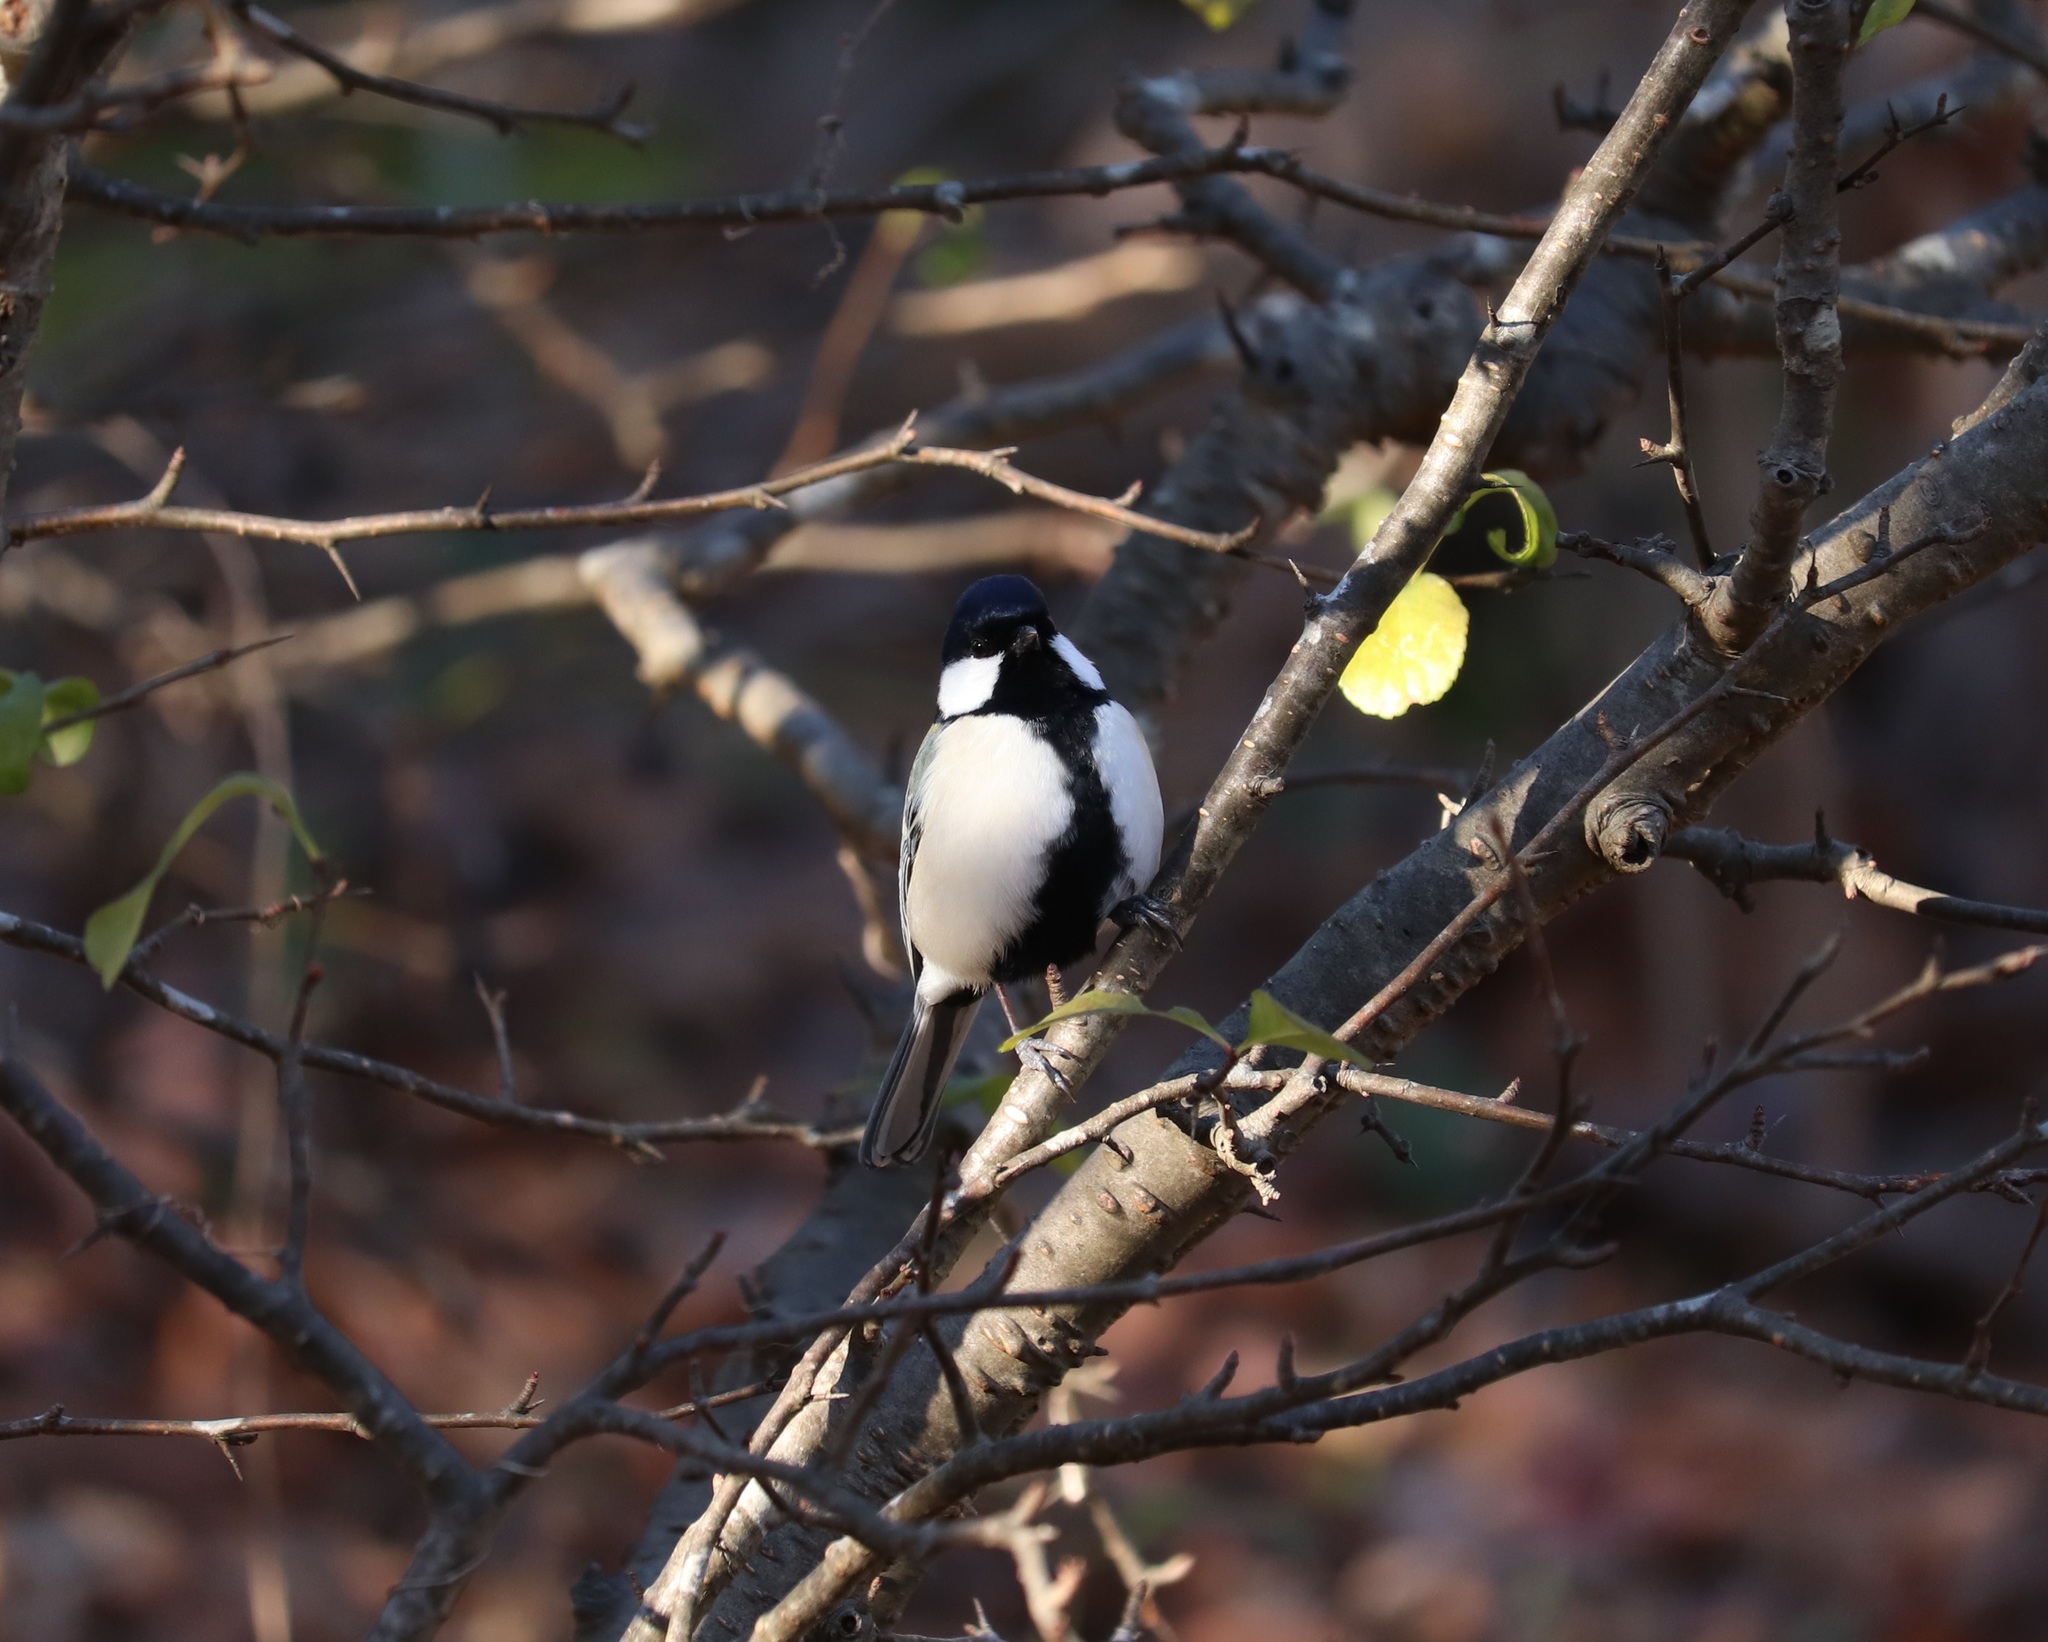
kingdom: Animalia
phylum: Chordata
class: Aves
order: Passeriformes
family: Paridae
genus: Parus
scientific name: Parus minor
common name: Japanese tit
